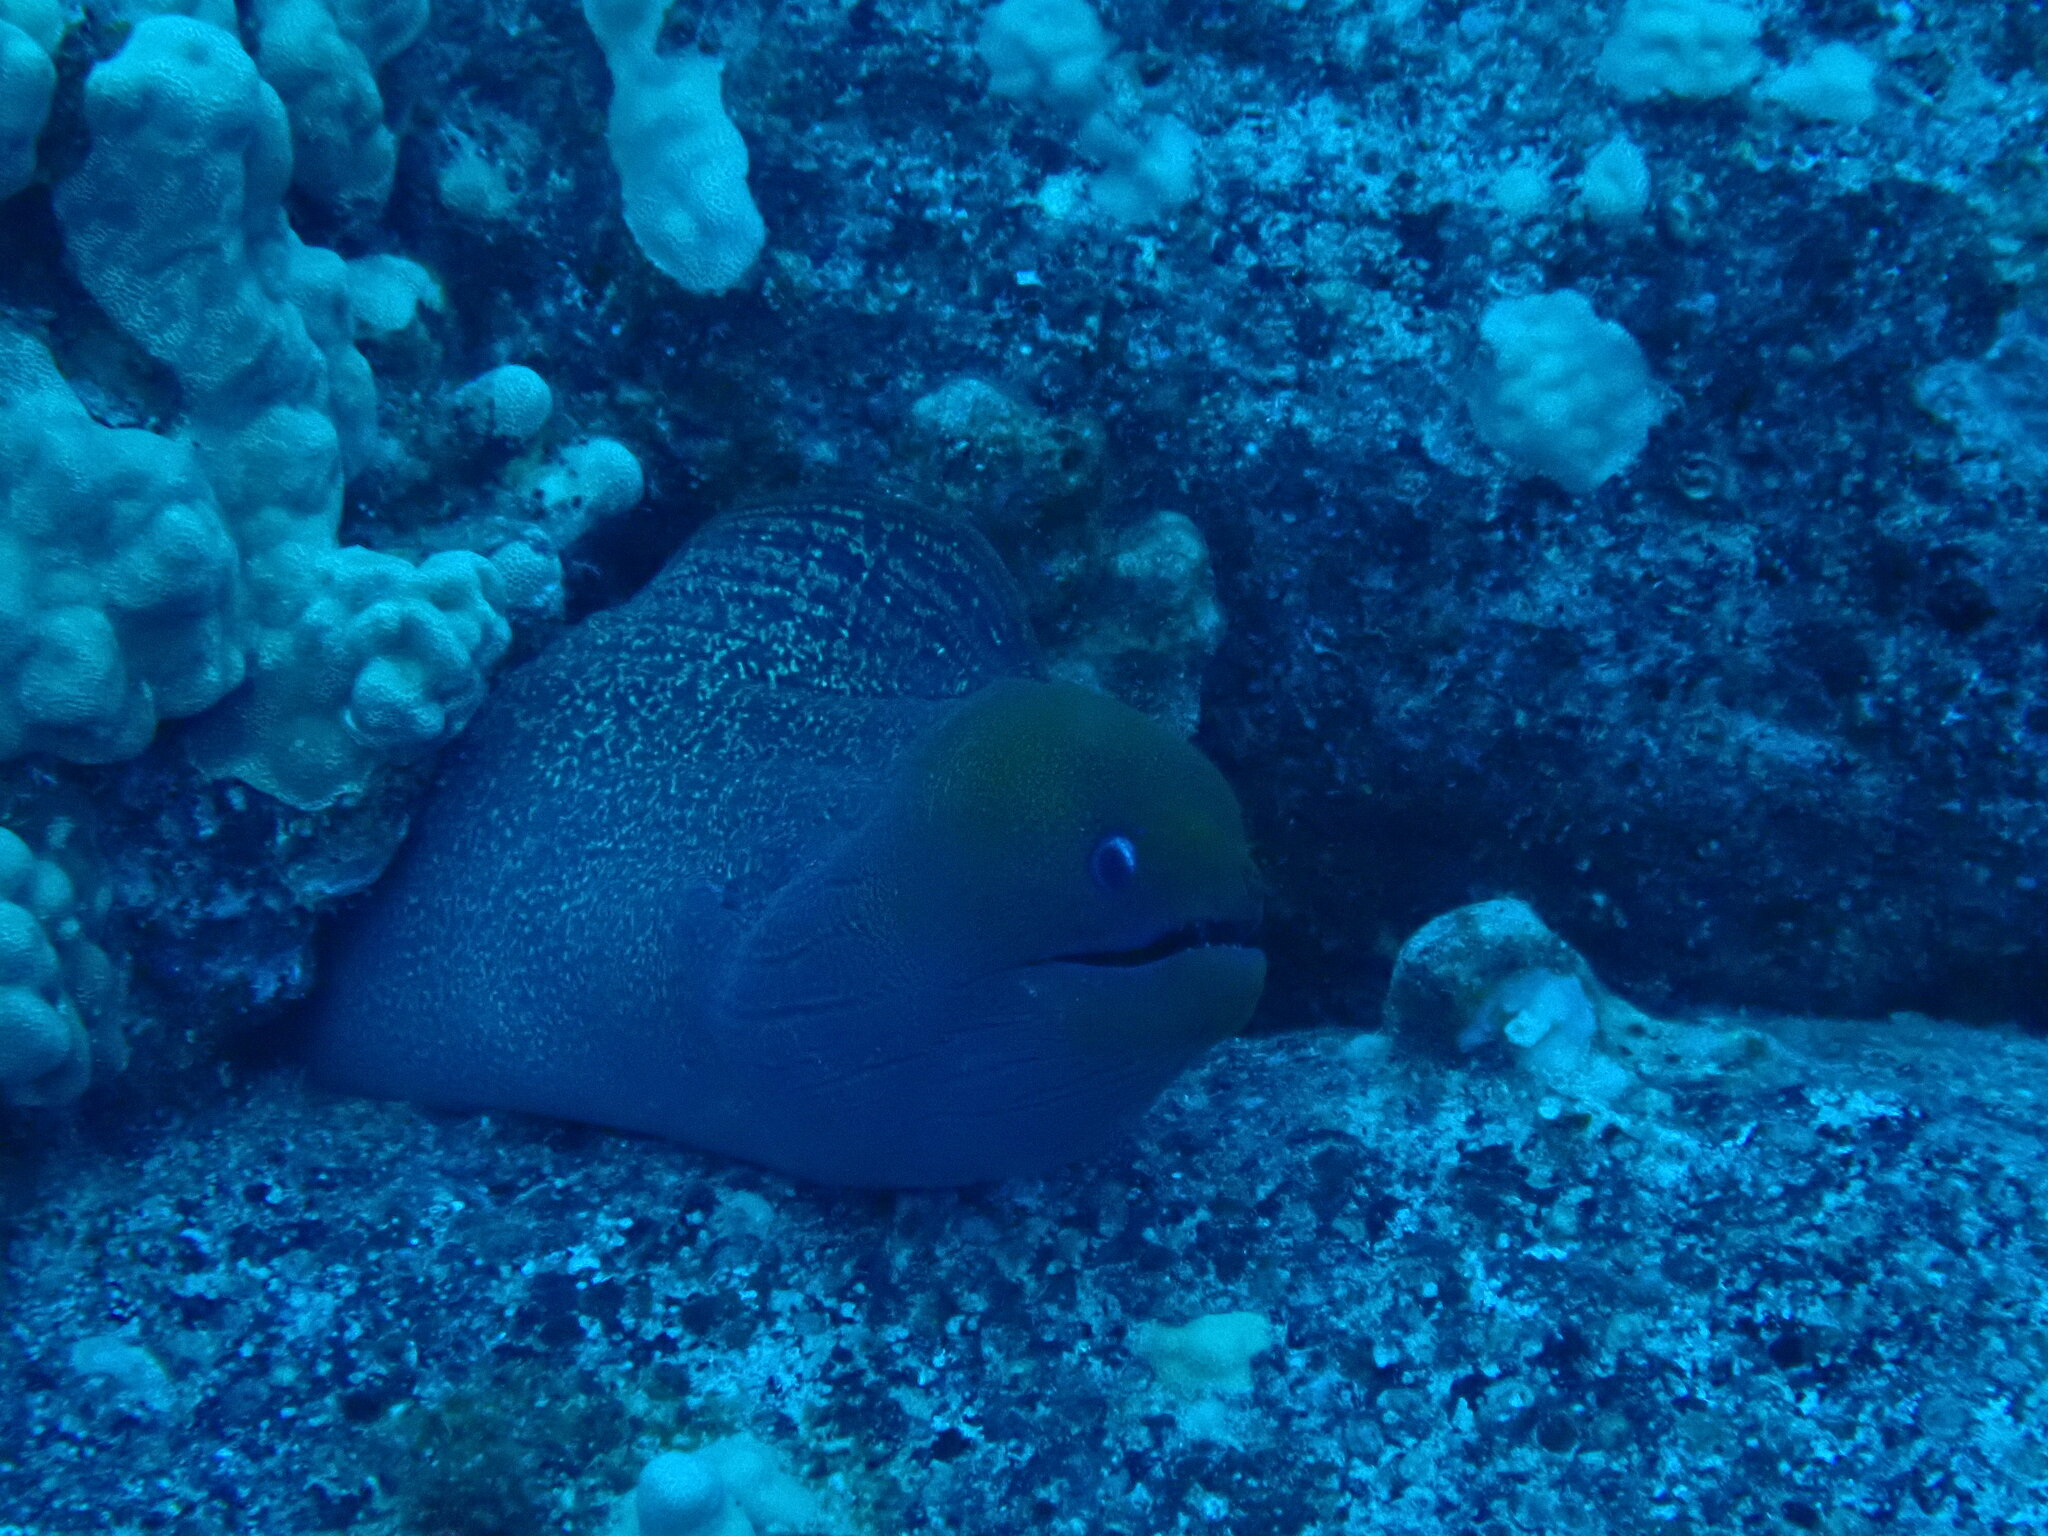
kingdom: Animalia
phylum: Chordata
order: Anguilliformes
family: Muraenidae
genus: Gymnothorax
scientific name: Gymnothorax javanicus
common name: Giant moray
